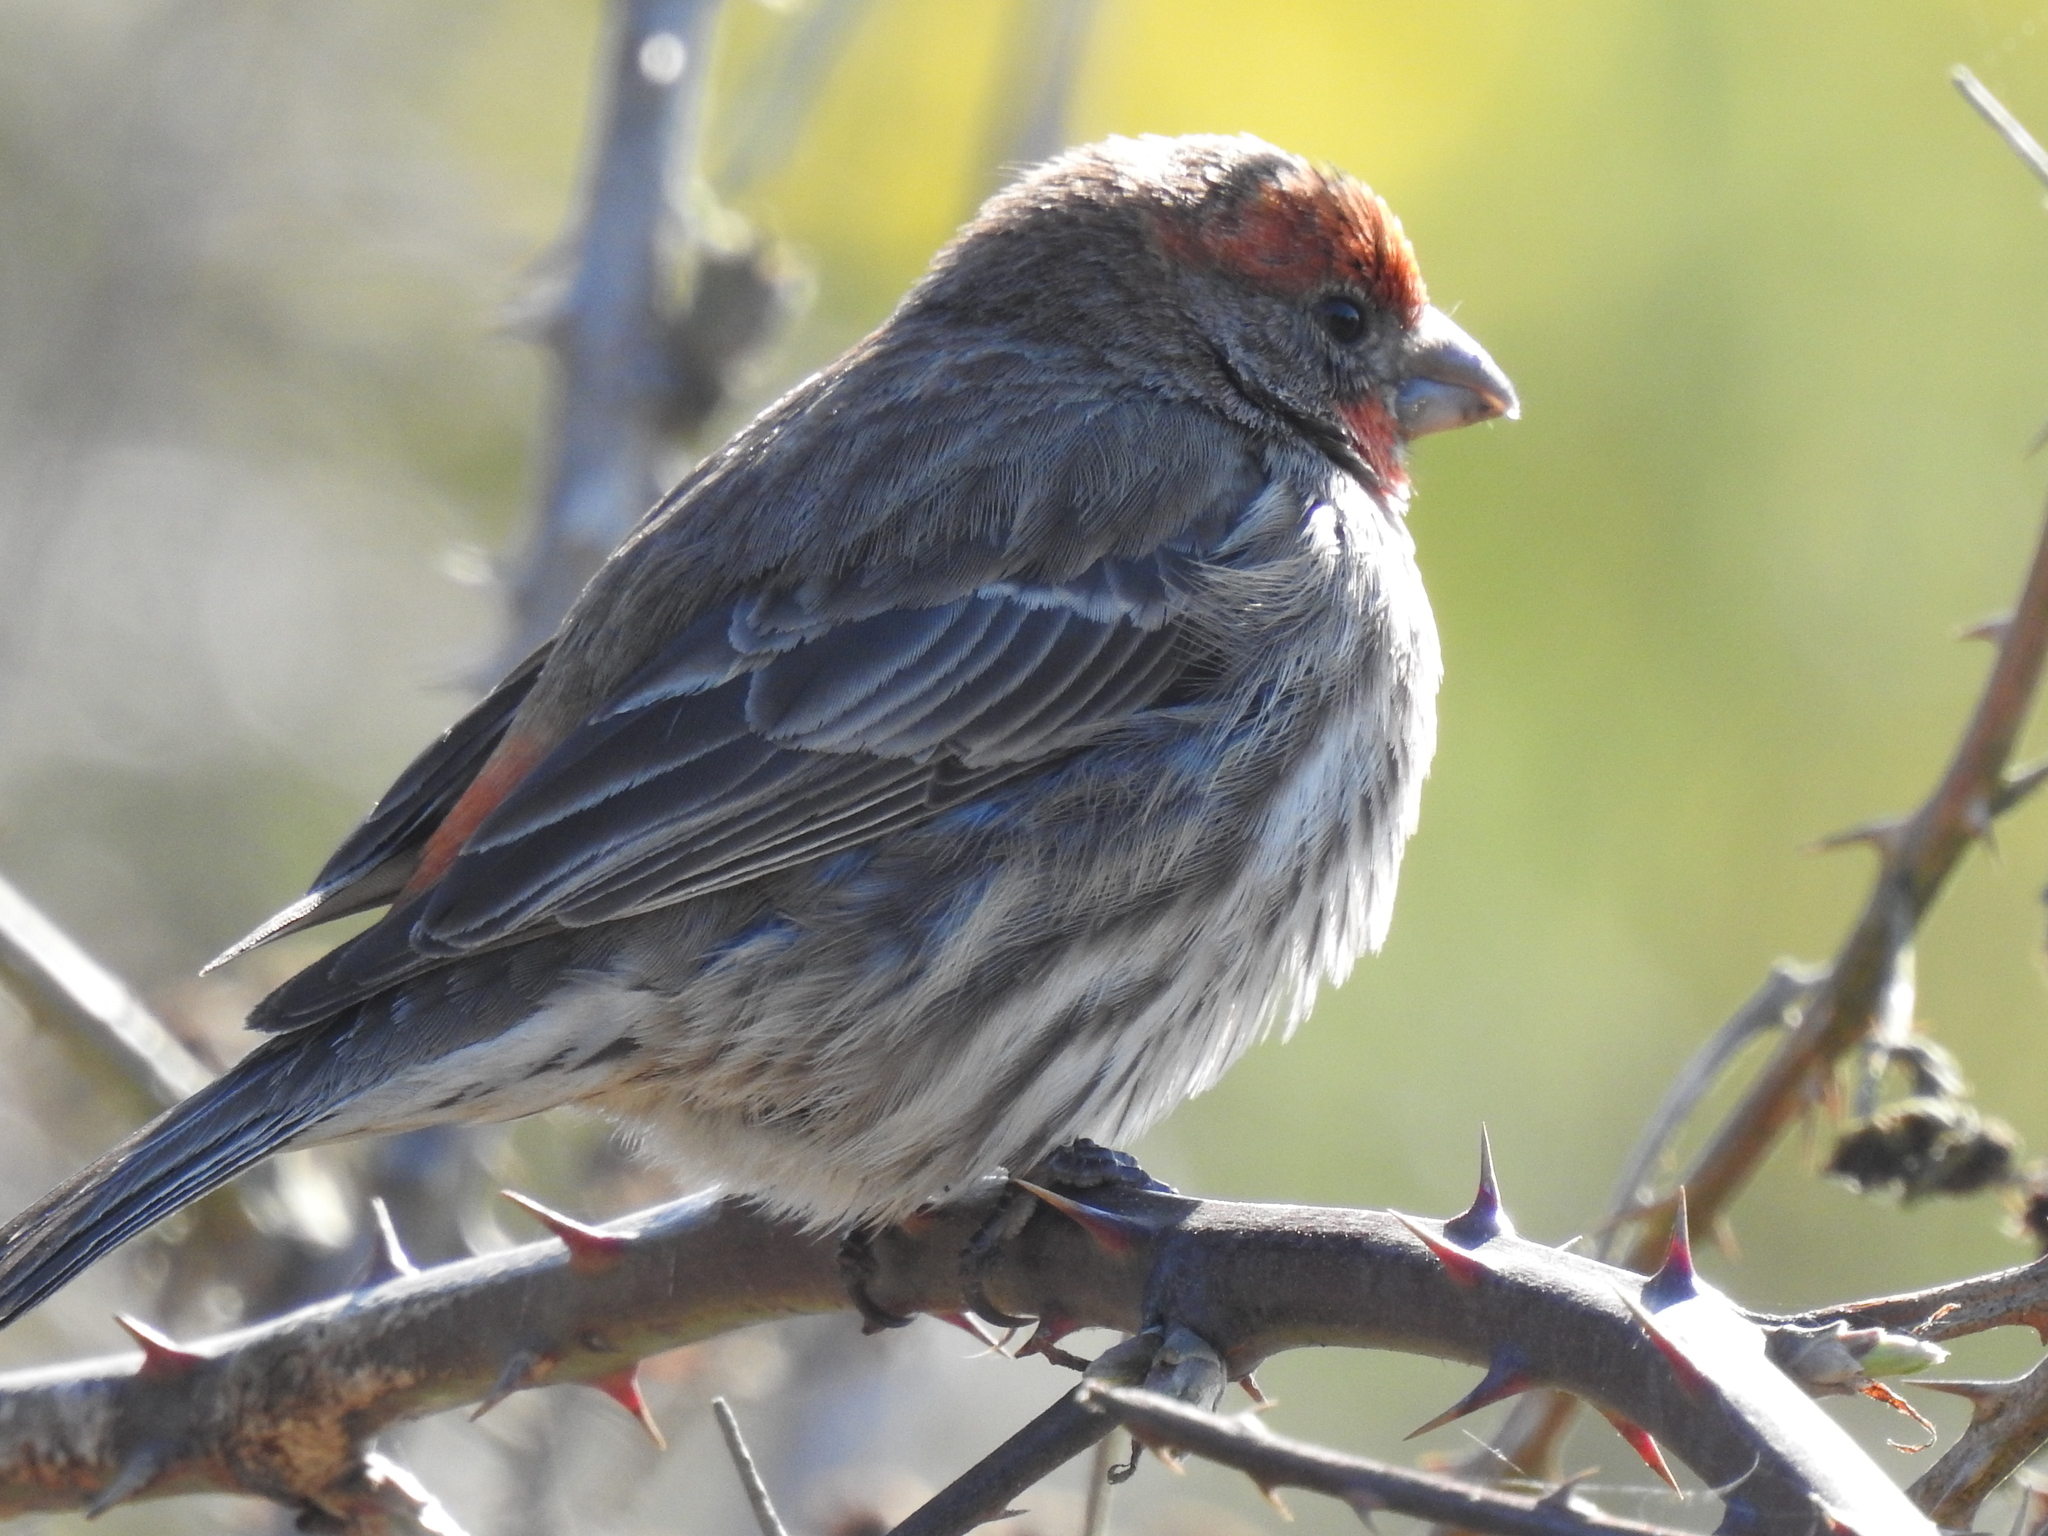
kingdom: Animalia
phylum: Chordata
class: Aves
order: Passeriformes
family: Fringillidae
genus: Haemorhous
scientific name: Haemorhous mexicanus
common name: House finch
